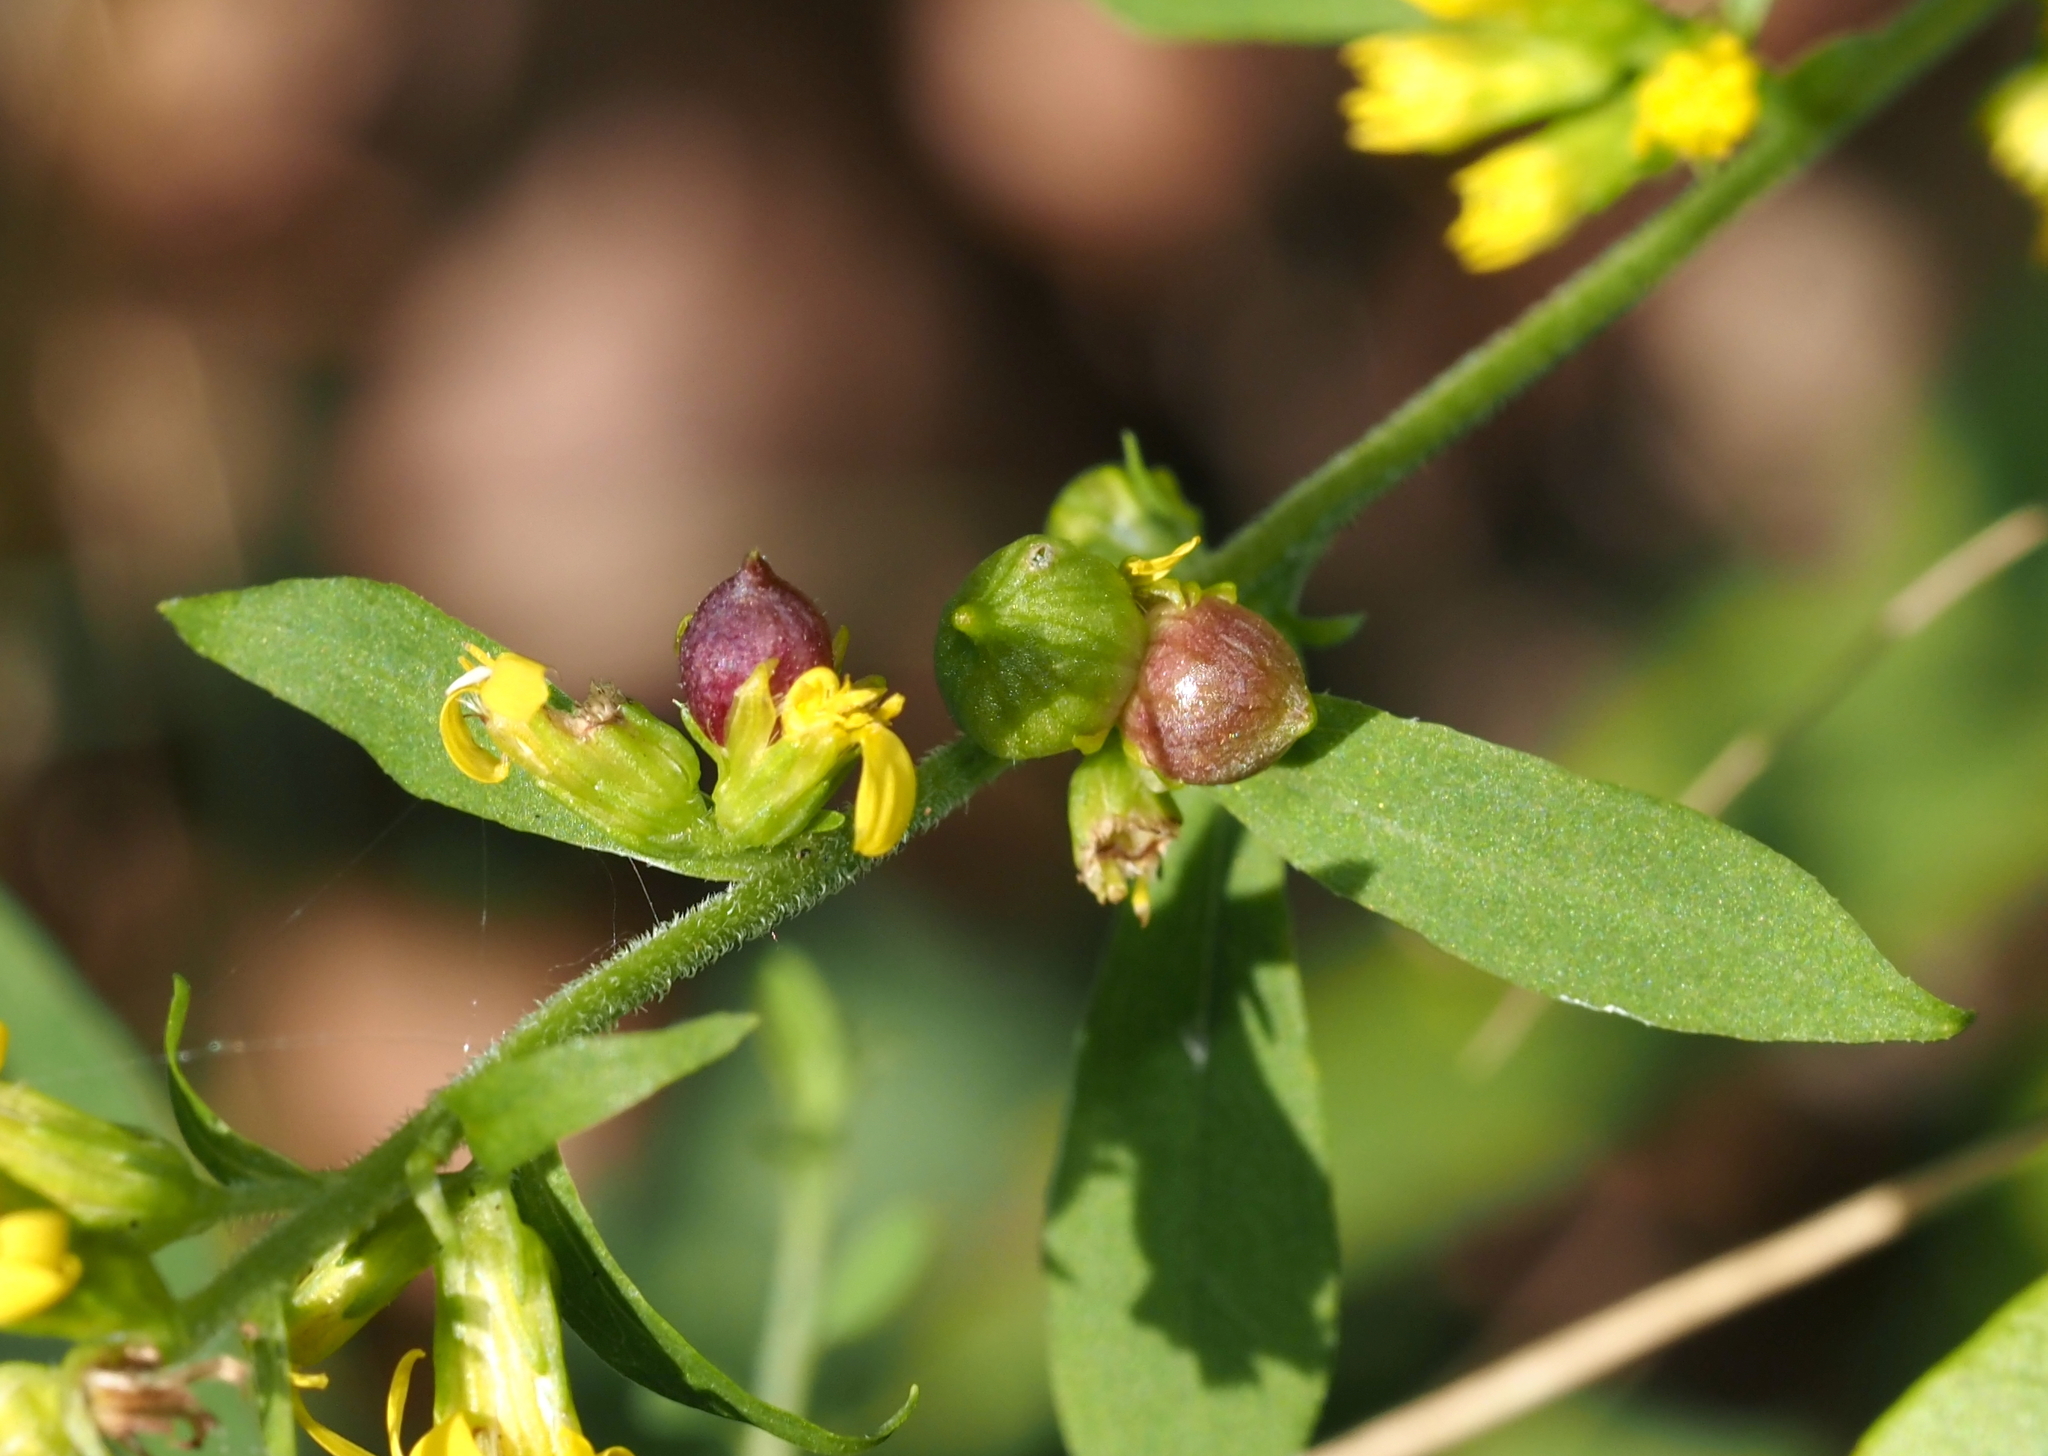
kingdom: Animalia
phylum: Arthropoda
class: Insecta
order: Diptera
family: Cecidomyiidae
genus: Schizomyia
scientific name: Schizomyia racemicola
